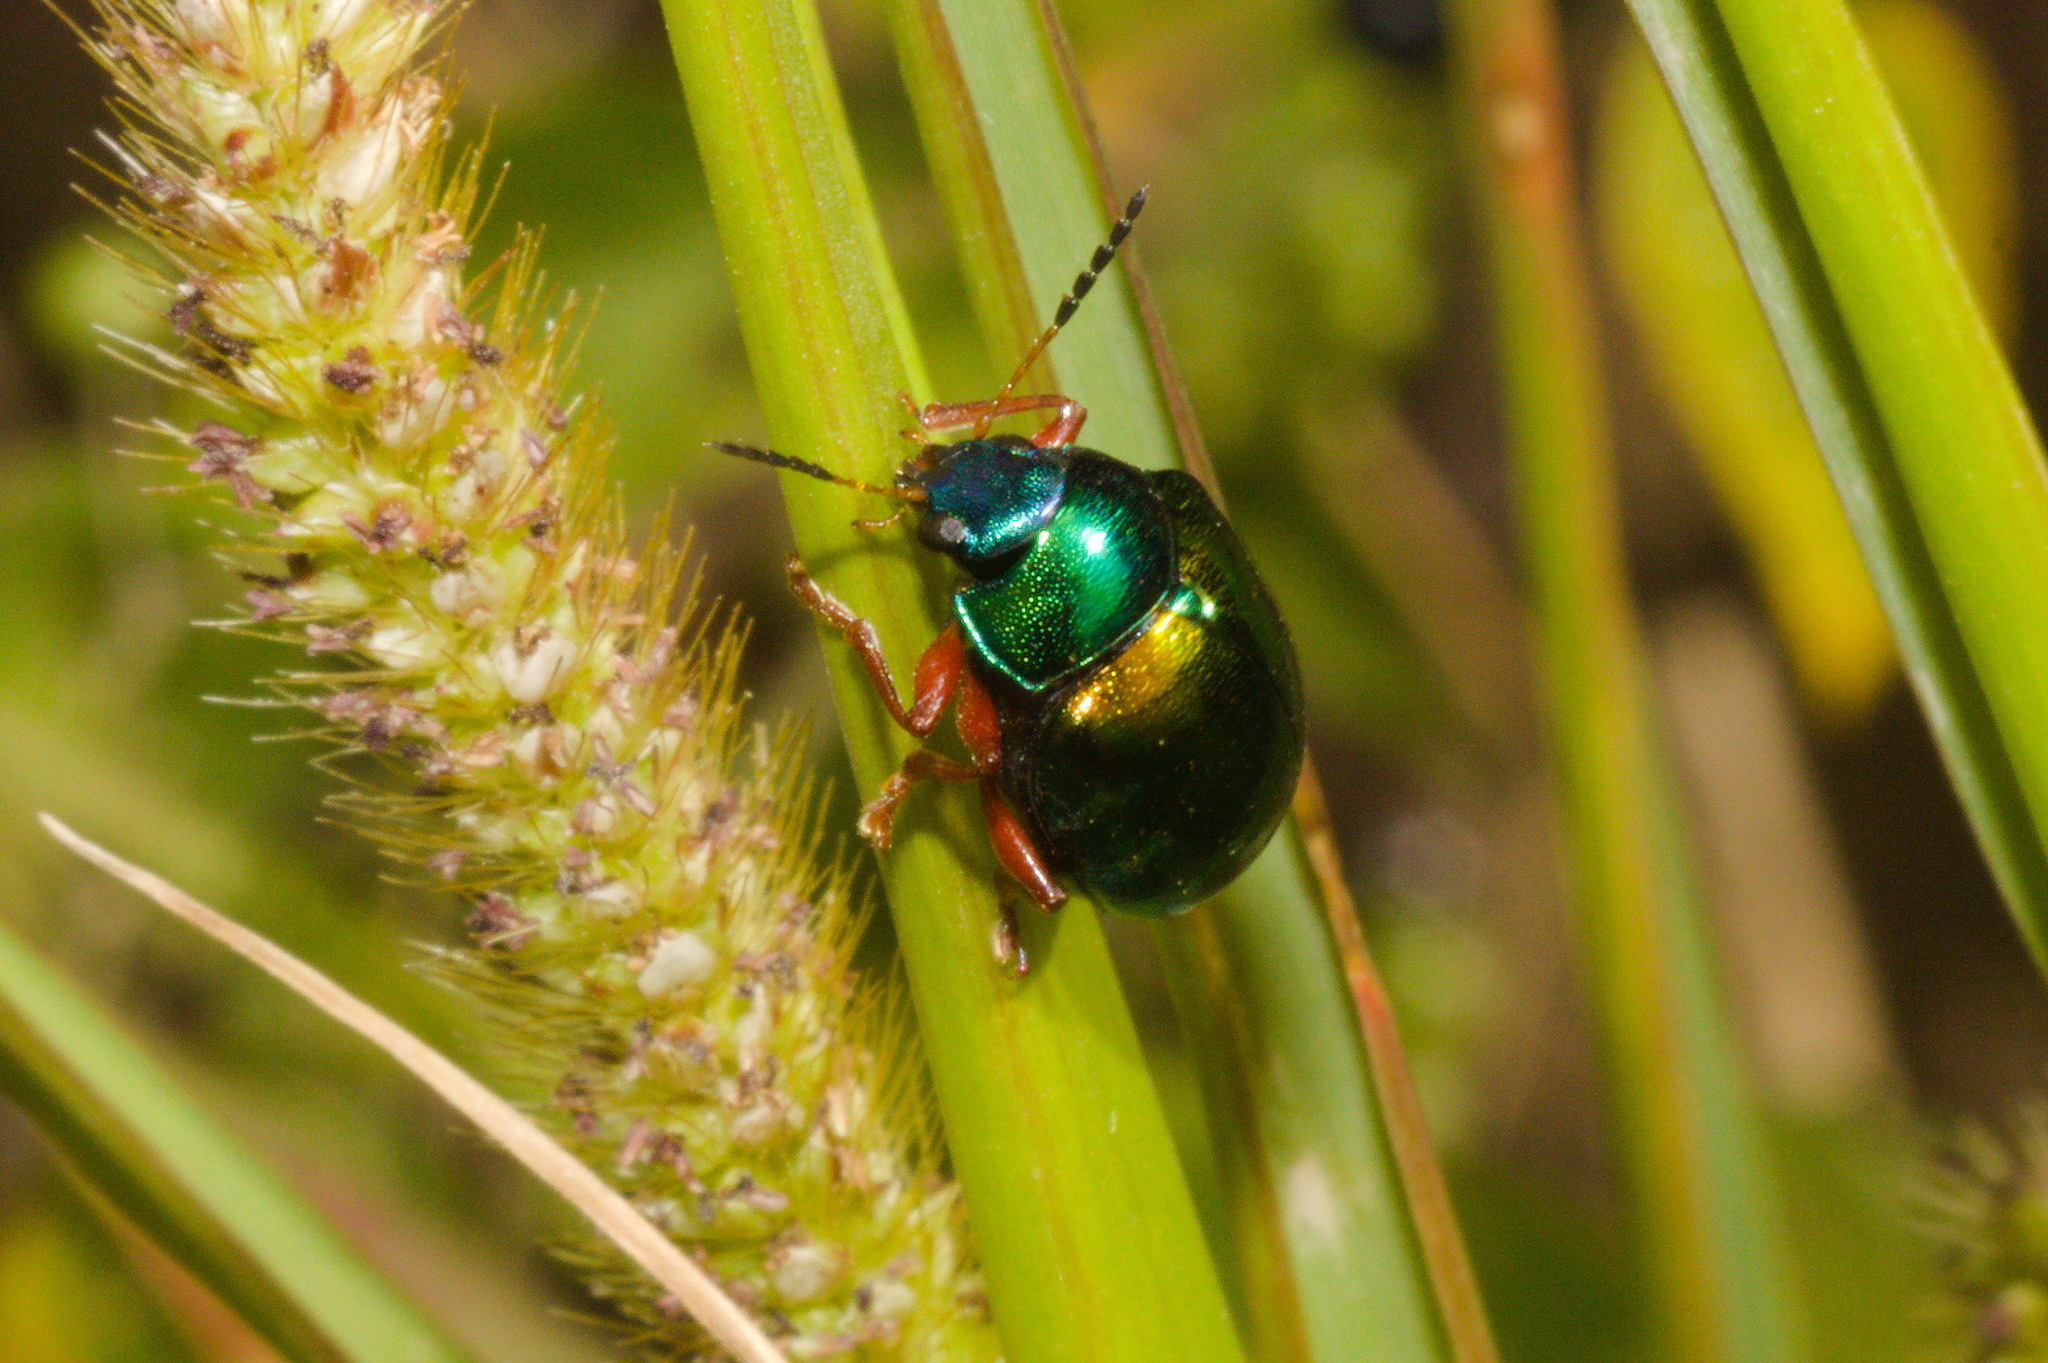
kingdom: Animalia
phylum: Arthropoda
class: Insecta
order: Coleoptera
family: Chrysomelidae
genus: Iphimeis
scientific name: Iphimeis
